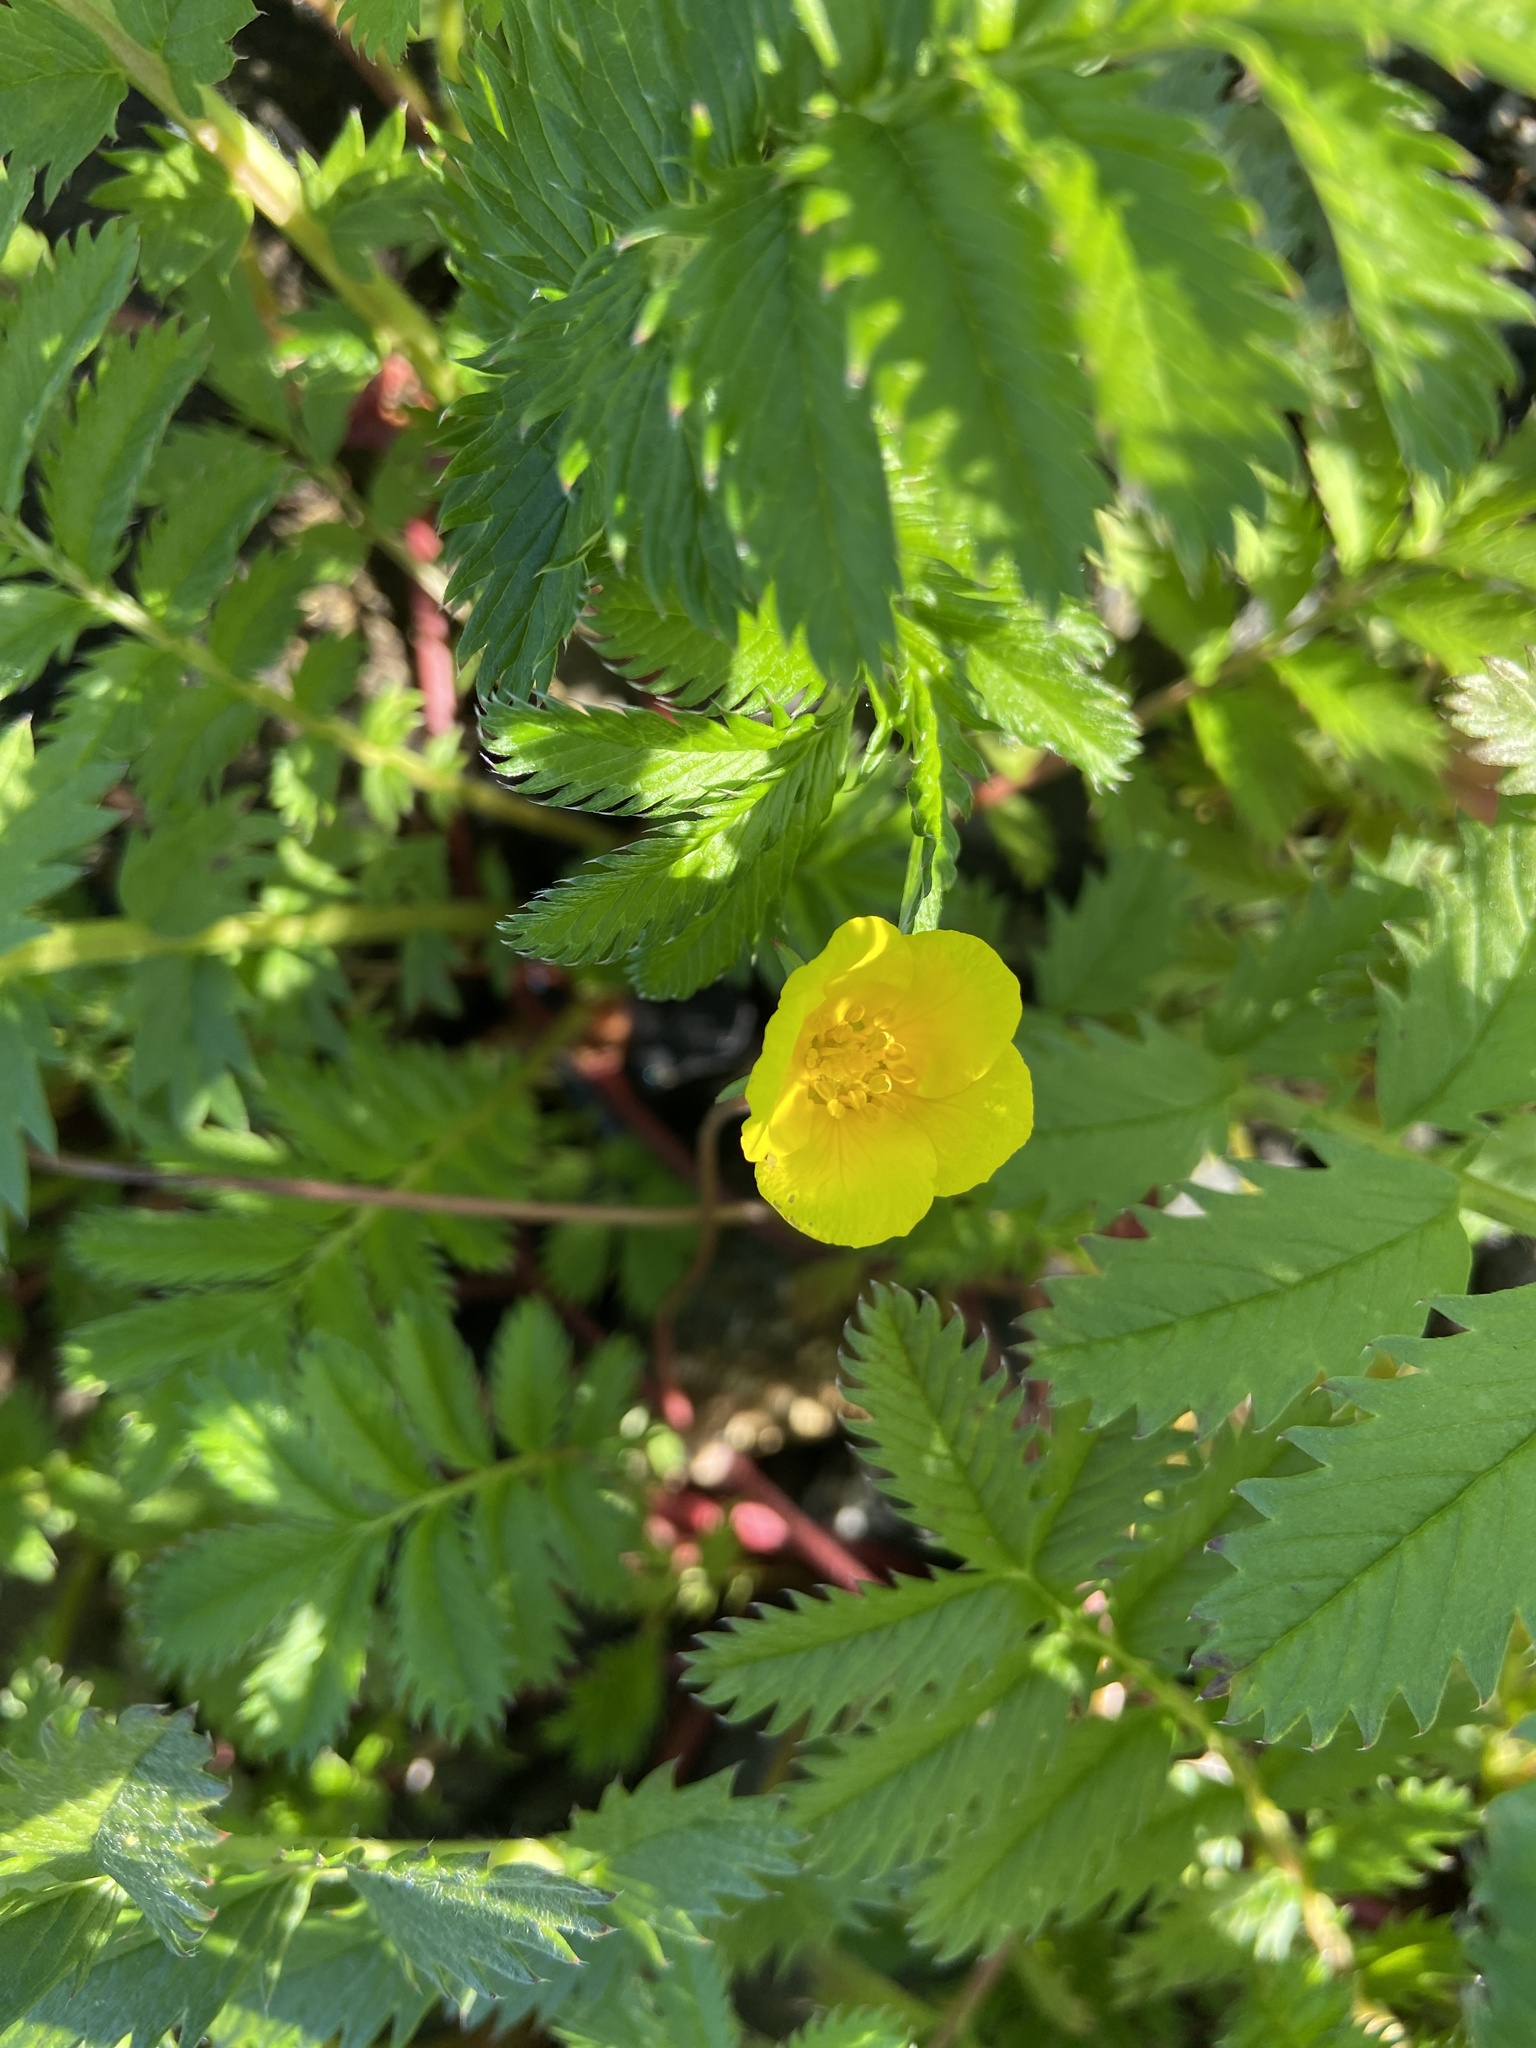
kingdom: Plantae
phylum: Tracheophyta
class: Magnoliopsida
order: Rosales
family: Rosaceae
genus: Argentina
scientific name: Argentina anserina
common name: Common silverweed
